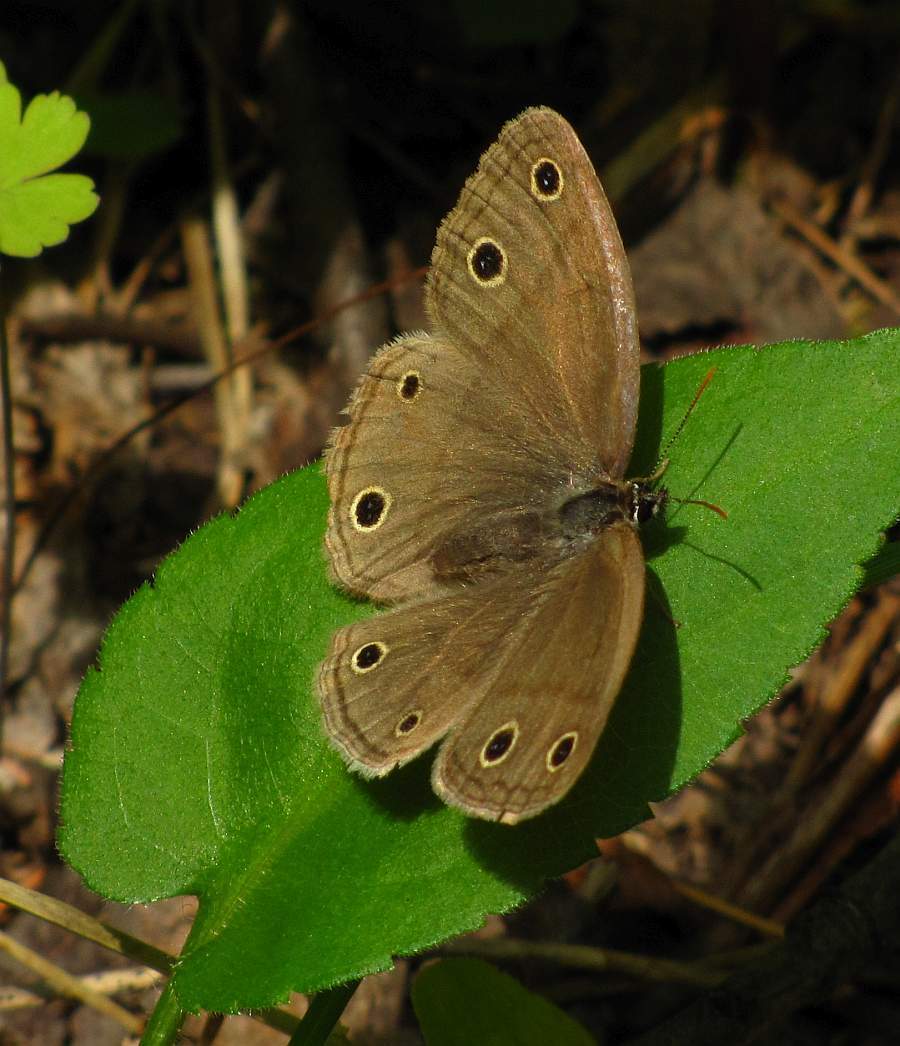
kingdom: Animalia
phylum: Arthropoda
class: Insecta
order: Lepidoptera
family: Nymphalidae
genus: Euptychia
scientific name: Euptychia cymela
